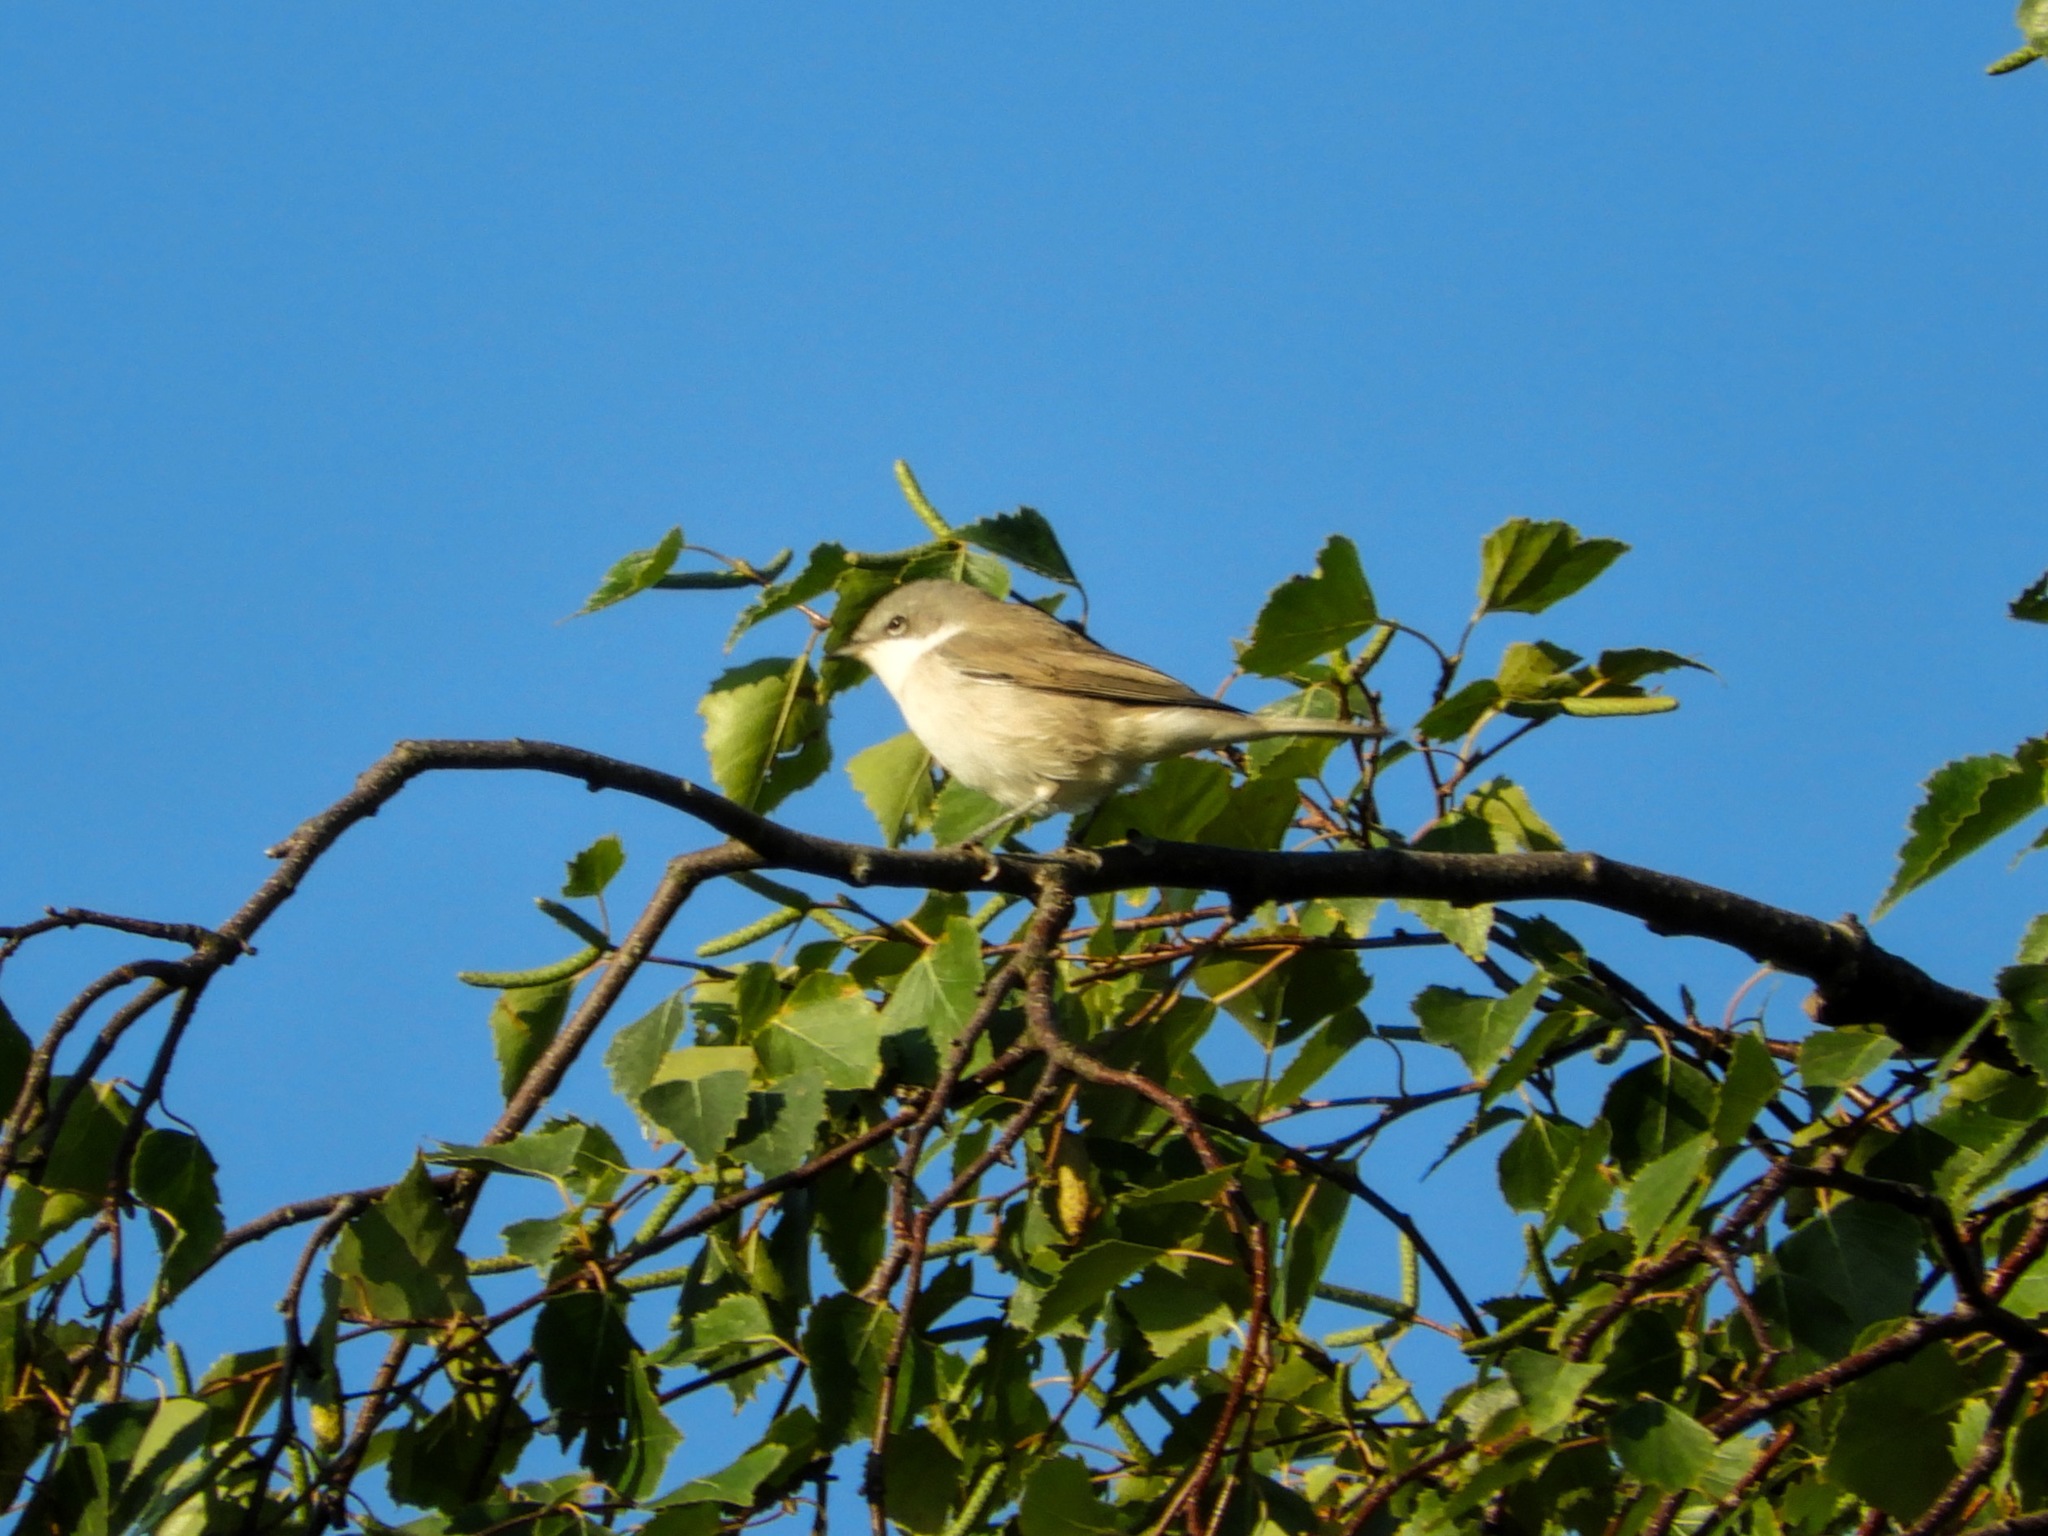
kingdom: Animalia
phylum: Chordata
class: Aves
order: Passeriformes
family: Sylviidae
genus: Sylvia
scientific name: Sylvia curruca
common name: Lesser whitethroat
